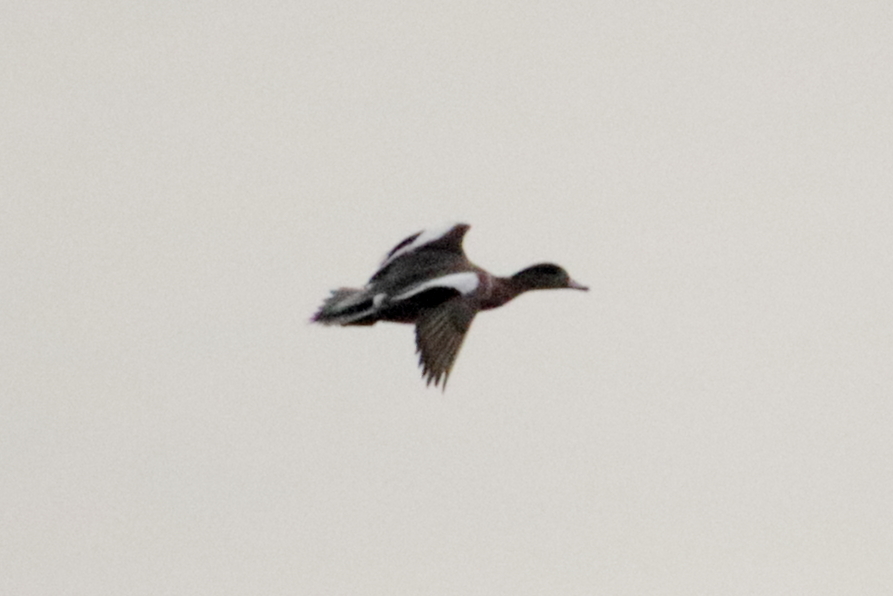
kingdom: Animalia
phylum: Chordata
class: Aves
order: Anseriformes
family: Anatidae
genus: Mareca
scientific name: Mareca americana
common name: American wigeon
